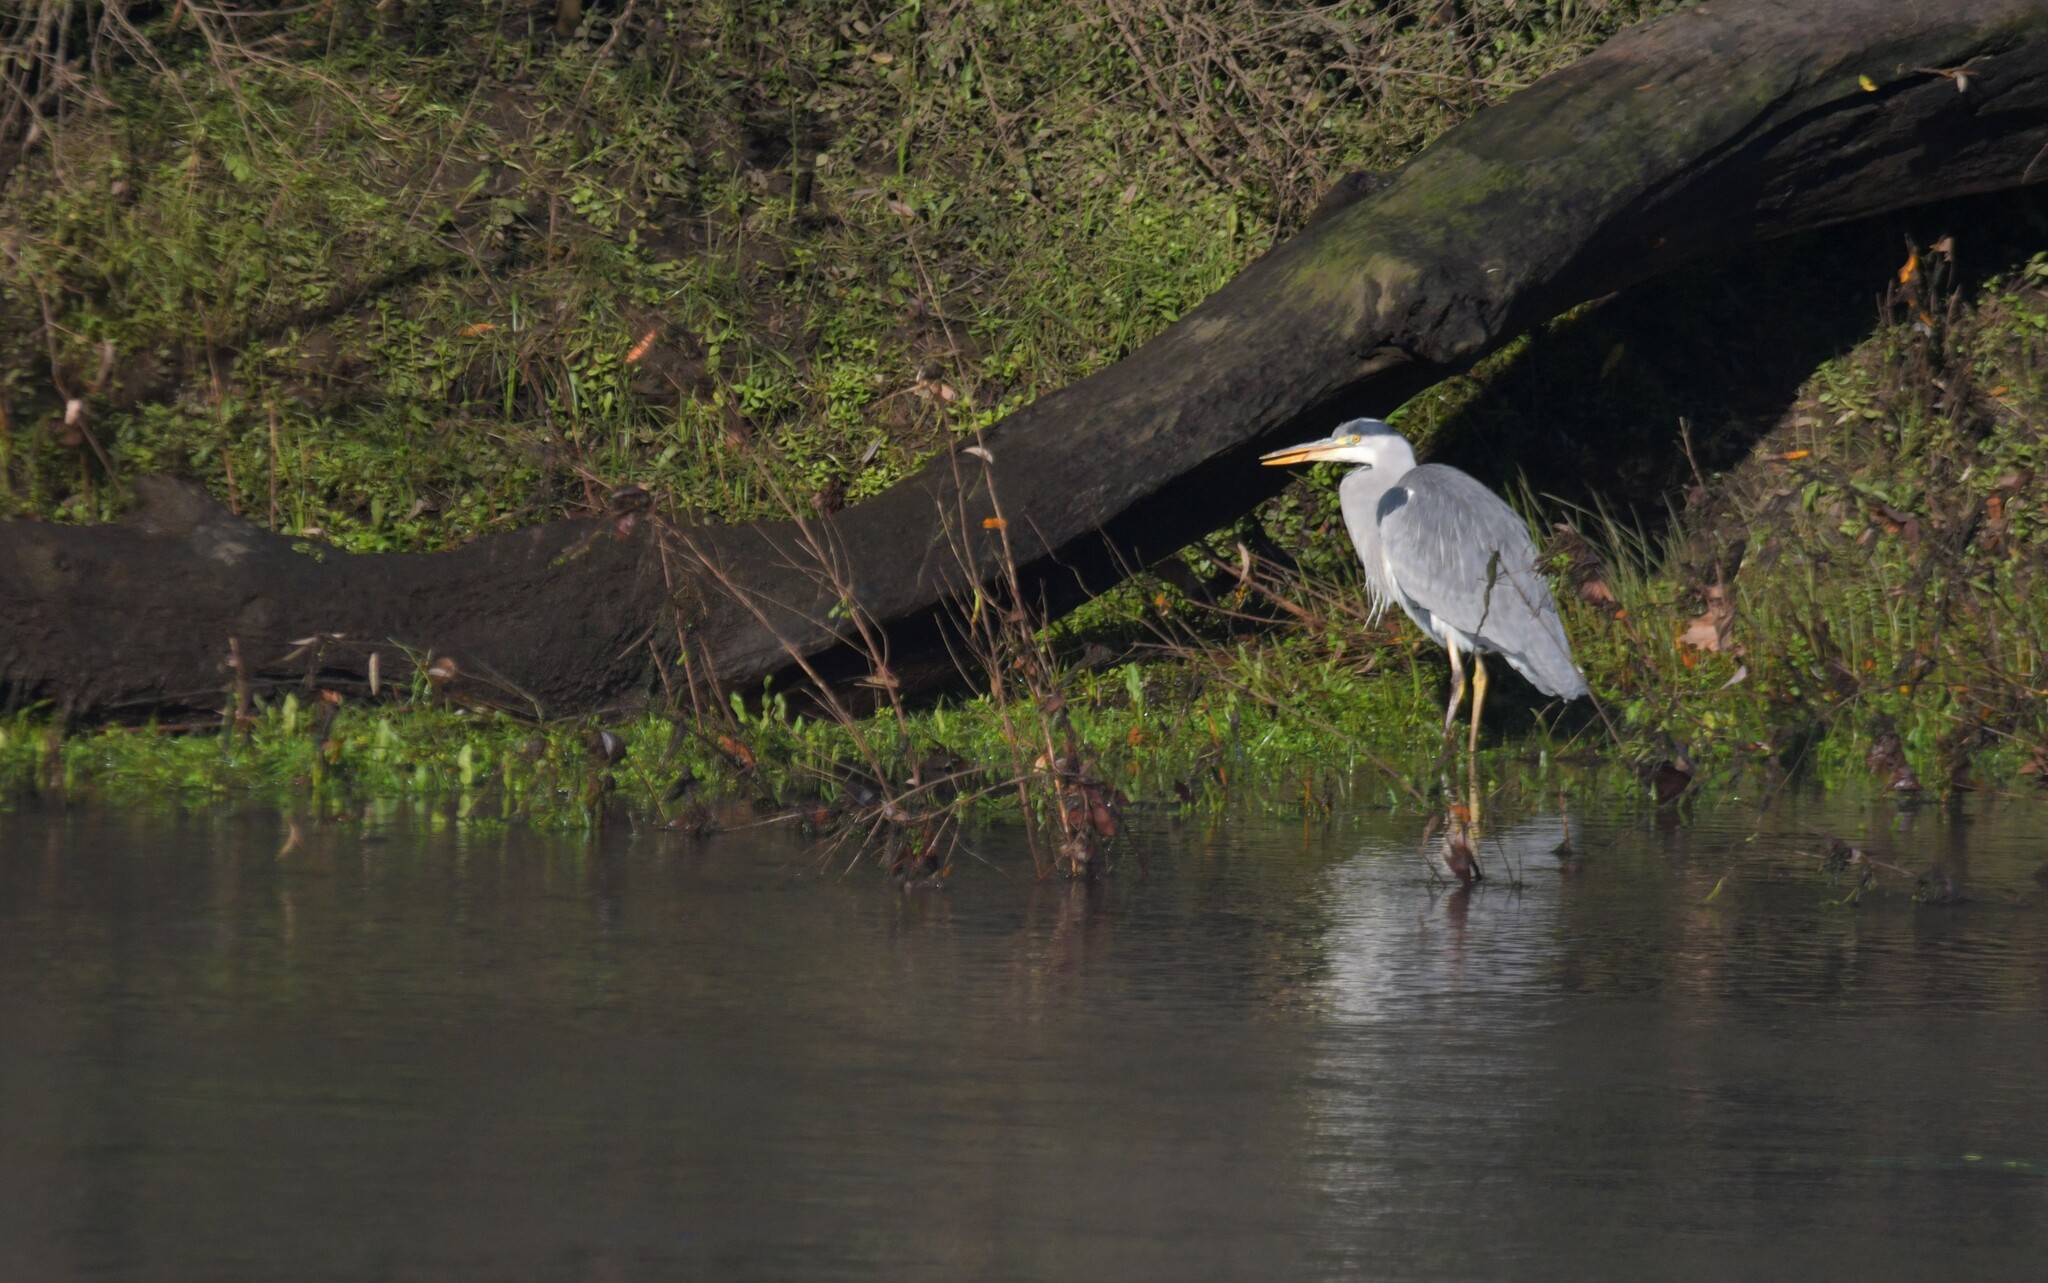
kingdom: Animalia
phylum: Chordata
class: Aves
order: Pelecaniformes
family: Ardeidae
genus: Ardea
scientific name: Ardea cinerea
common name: Grey heron
